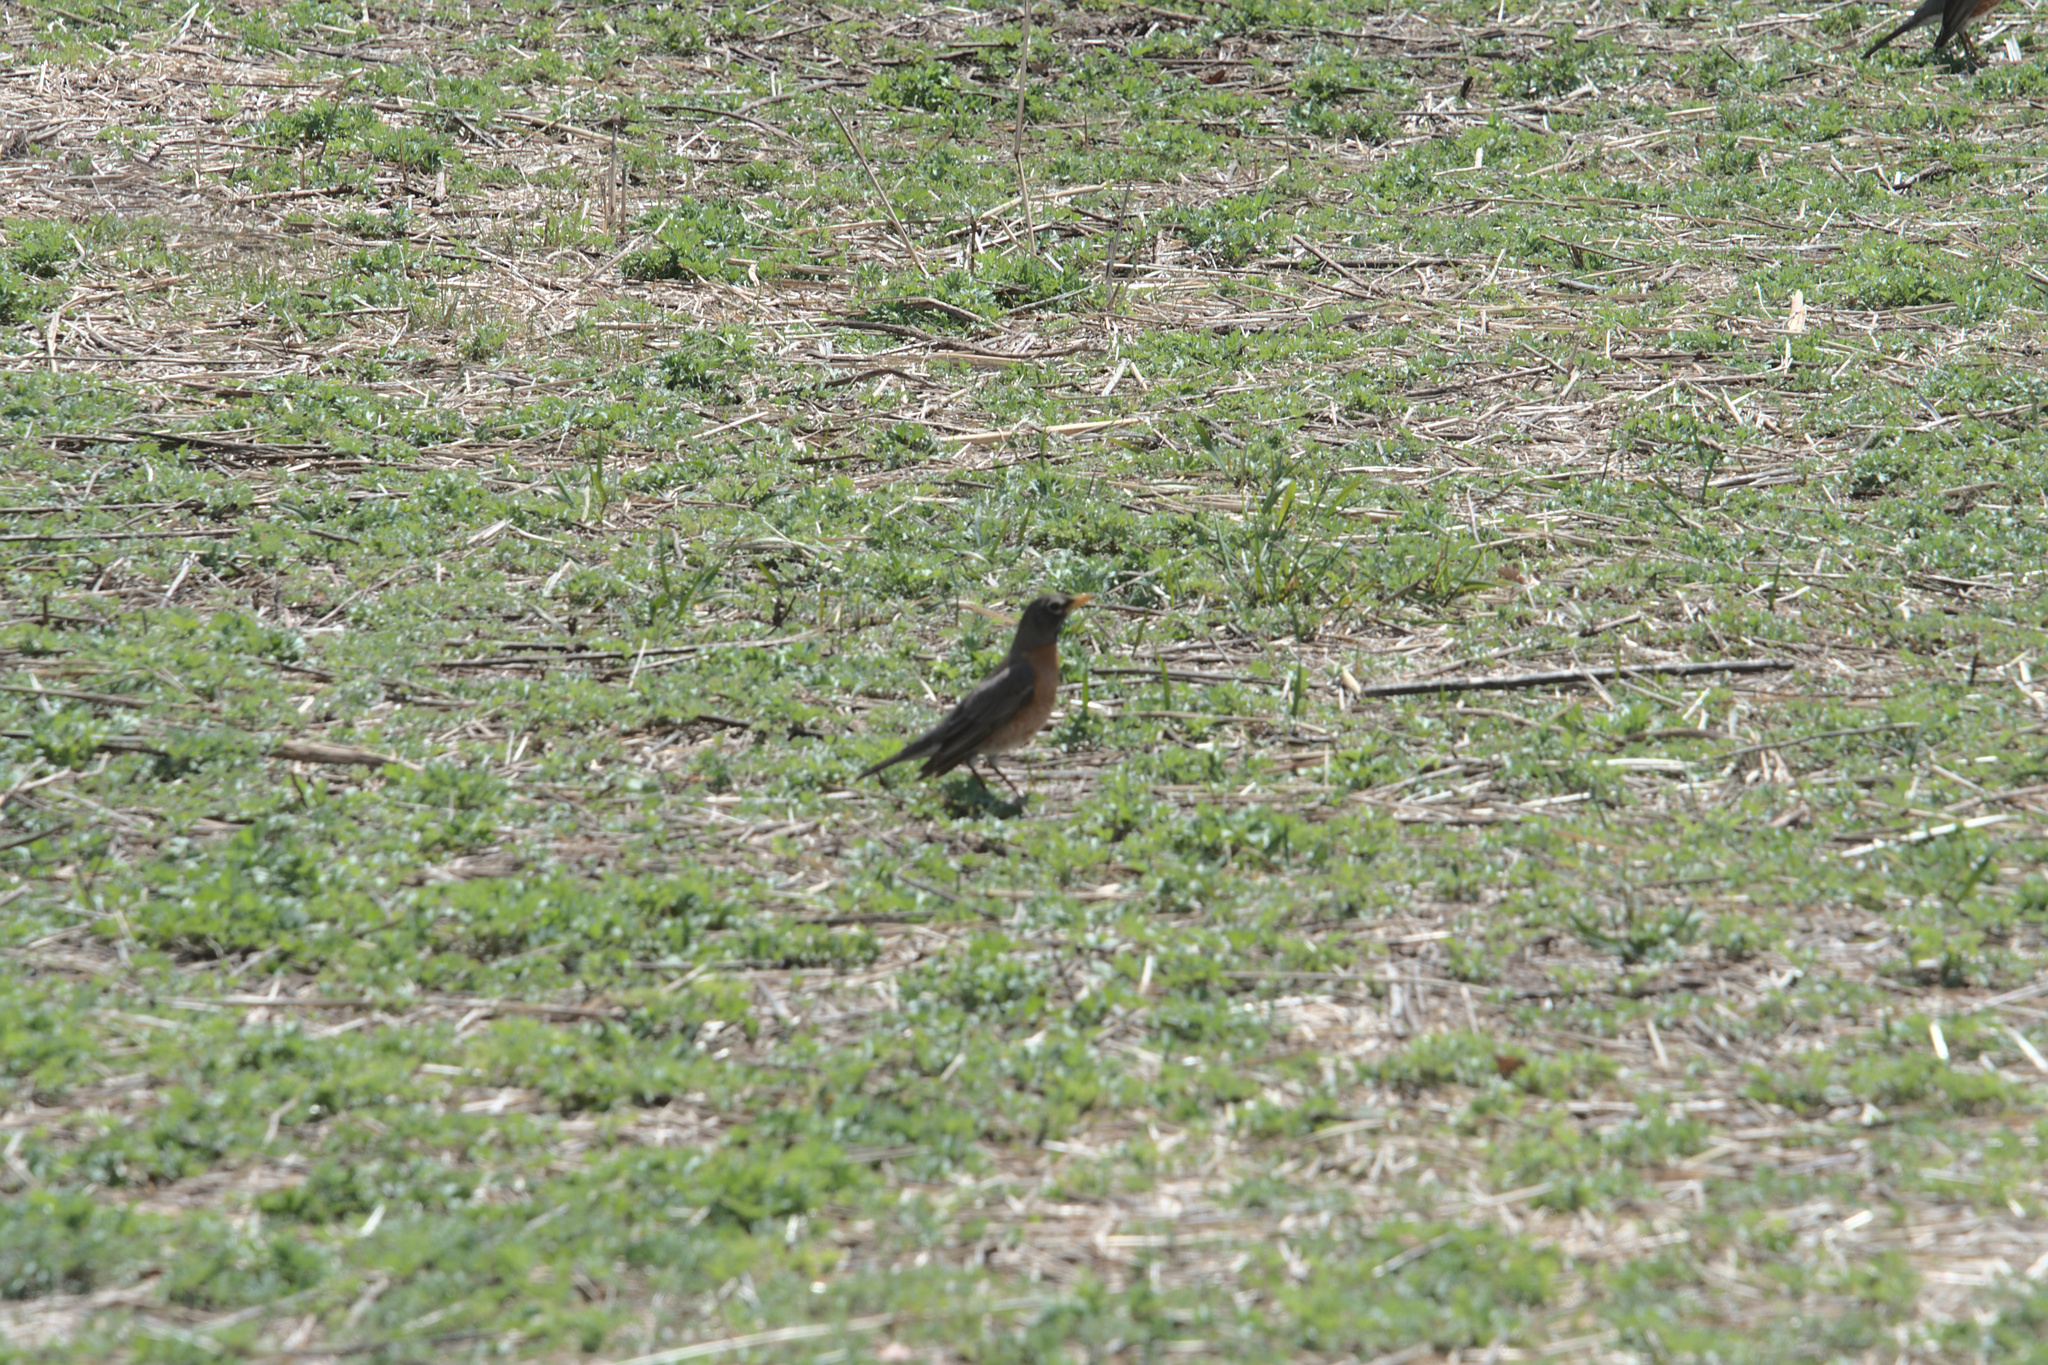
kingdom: Animalia
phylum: Chordata
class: Aves
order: Passeriformes
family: Turdidae
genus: Turdus
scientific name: Turdus migratorius
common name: American robin
